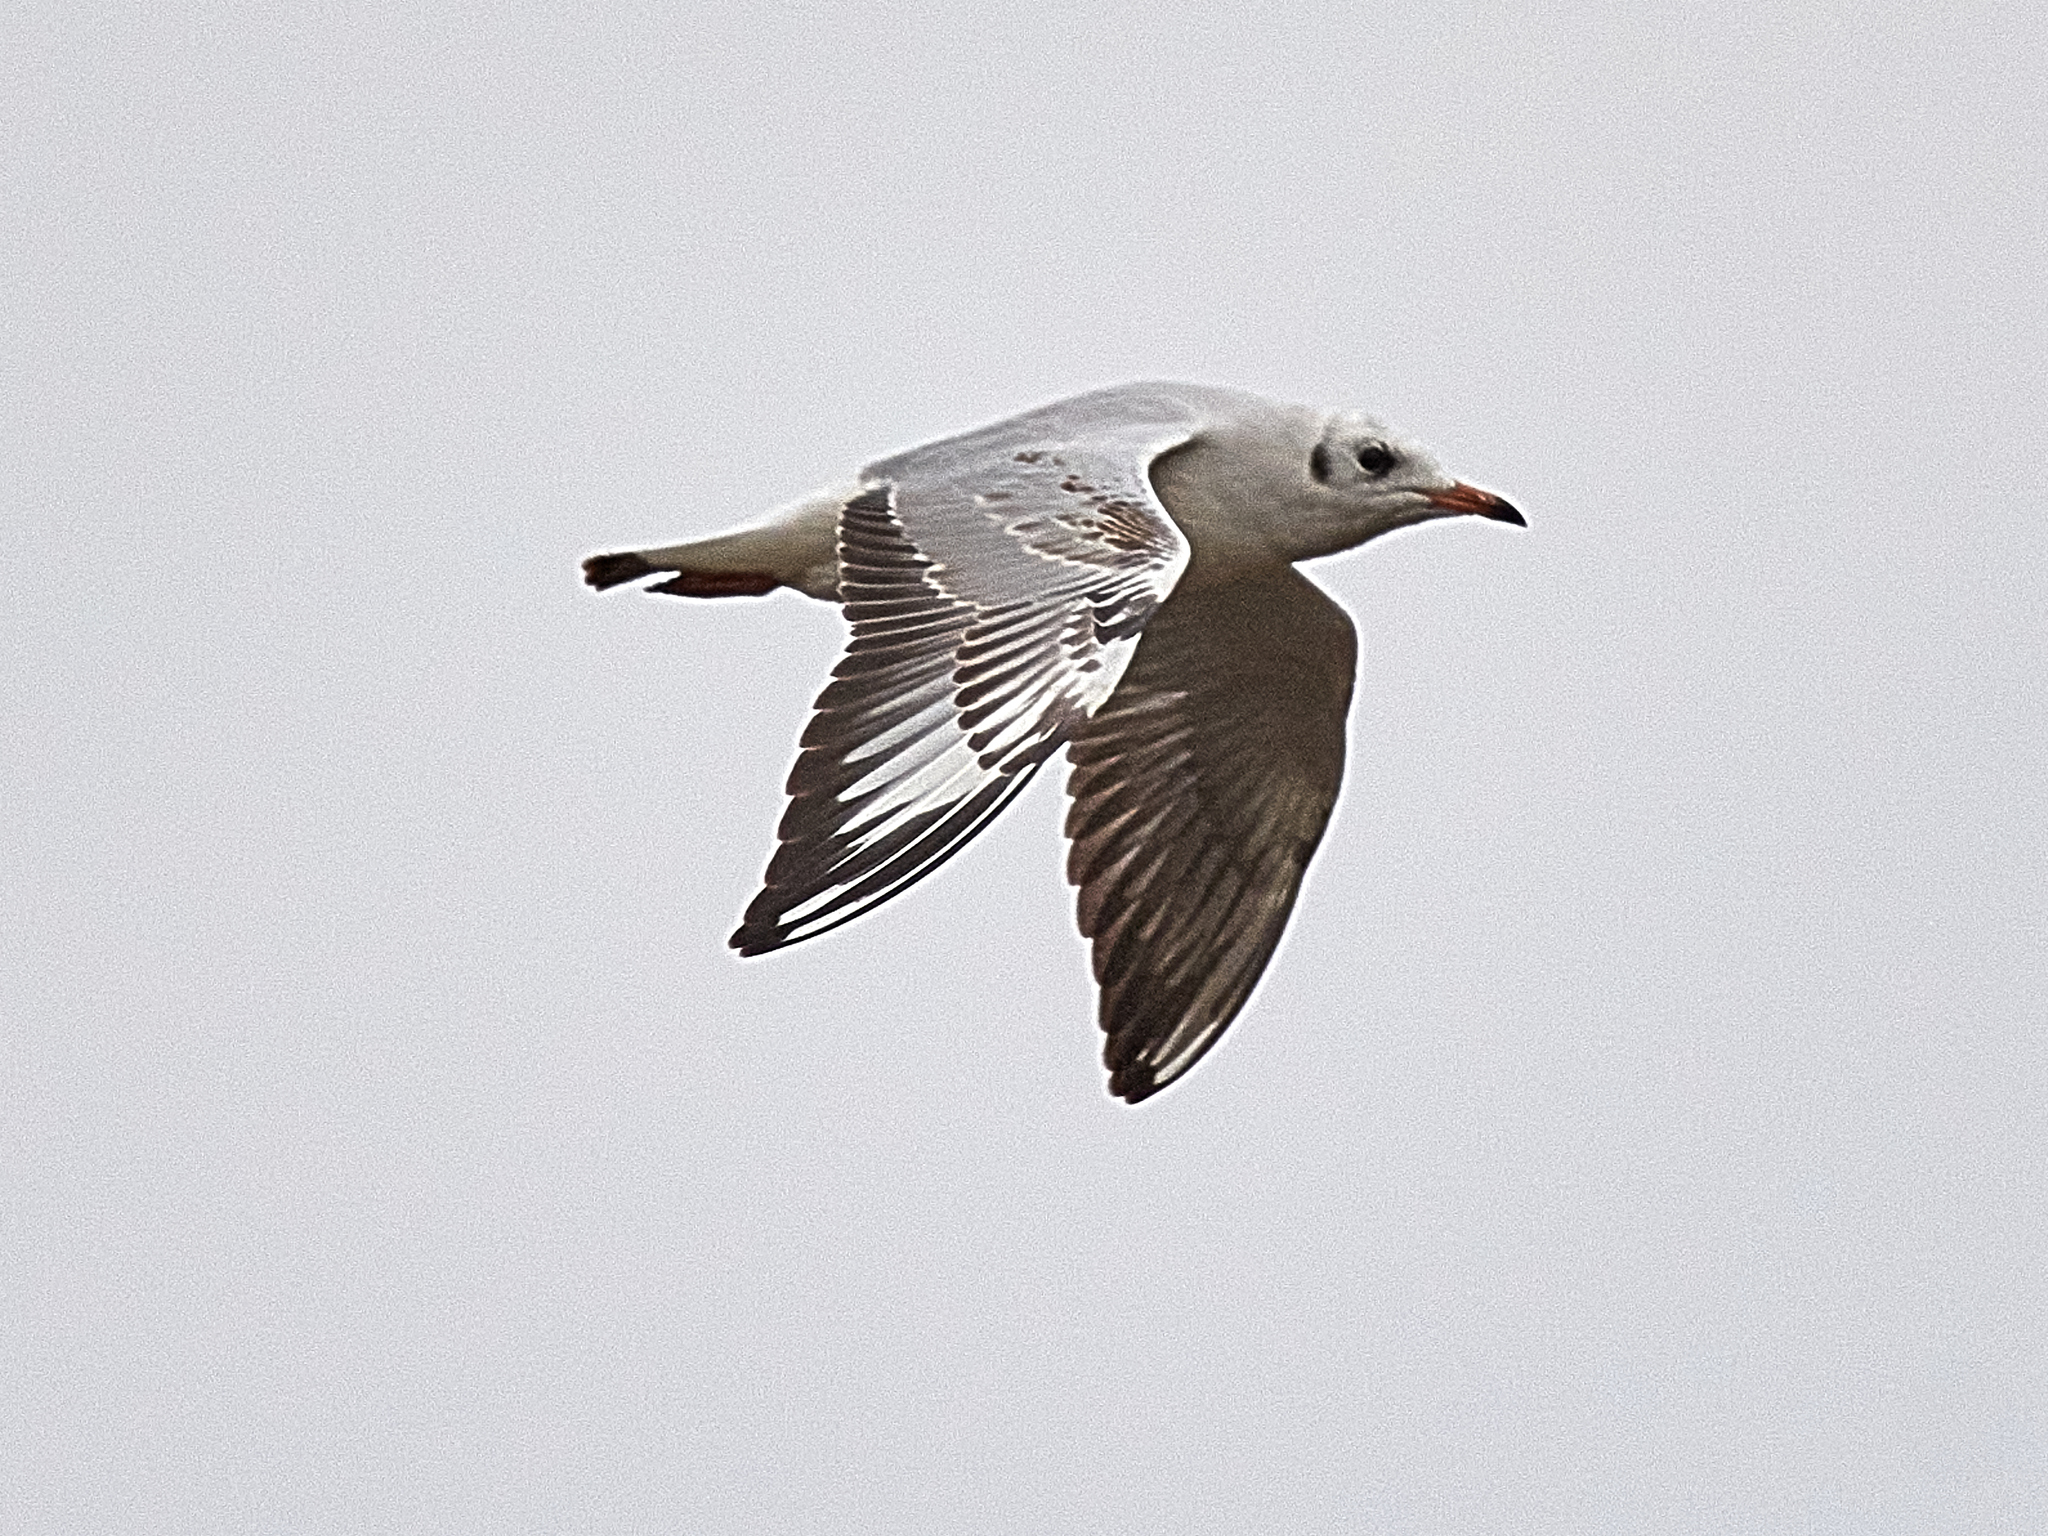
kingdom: Animalia
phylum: Chordata
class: Aves
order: Charadriiformes
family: Laridae
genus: Chroicocephalus
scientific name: Chroicocephalus ridibundus
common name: Black-headed gull
